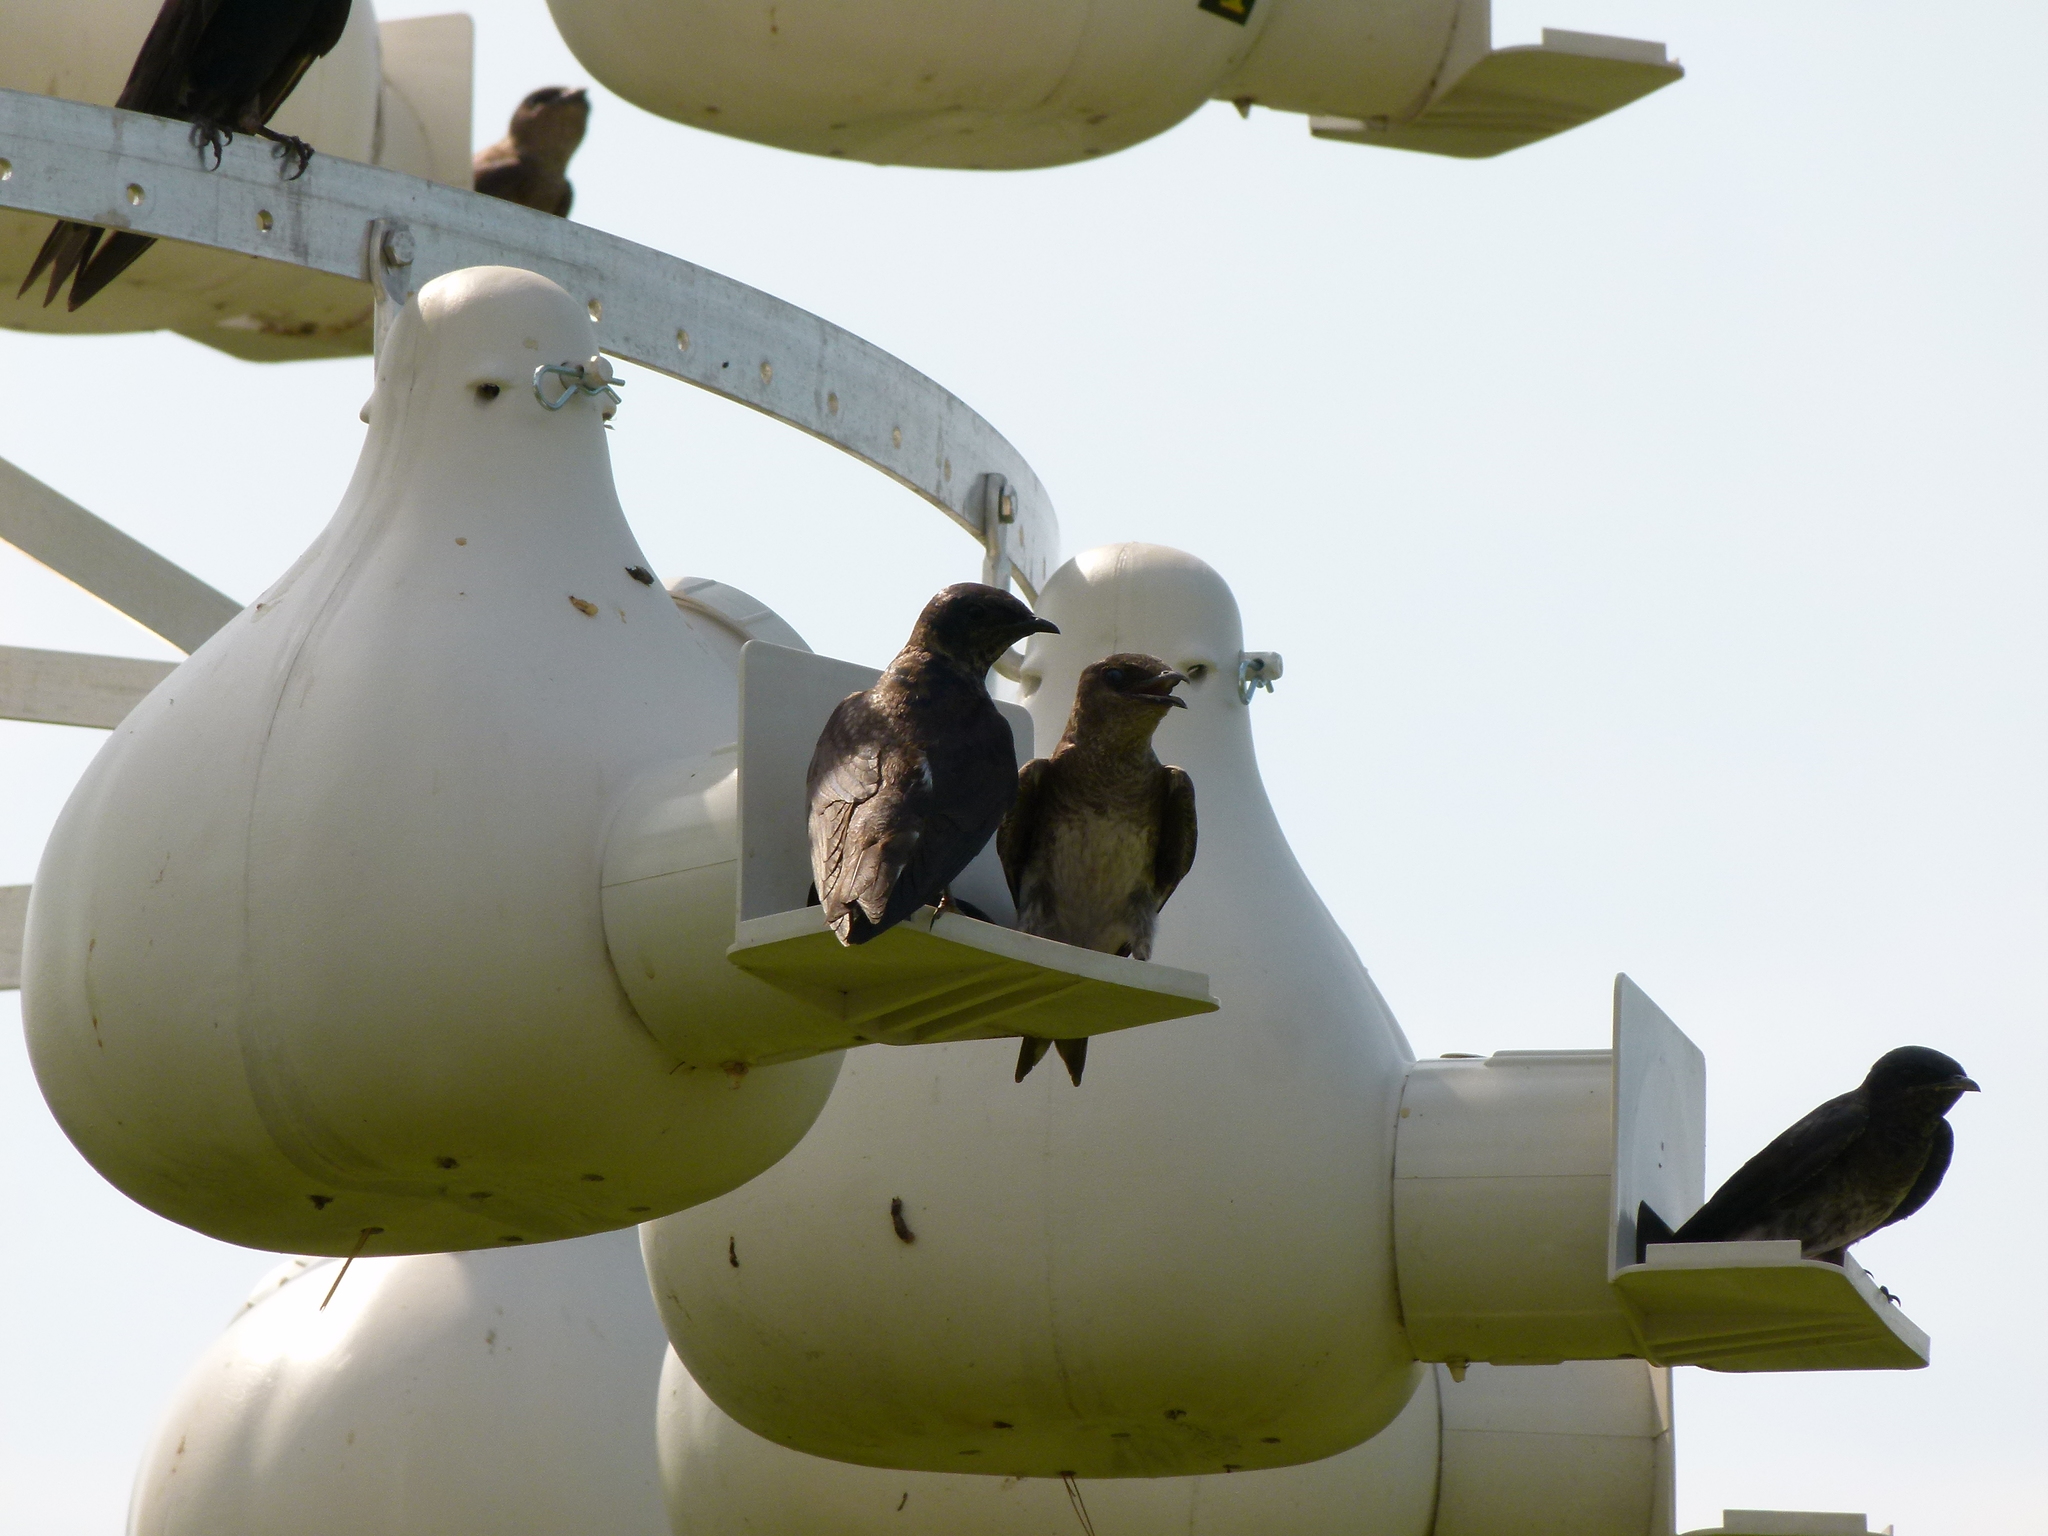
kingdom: Animalia
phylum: Chordata
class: Aves
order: Passeriformes
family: Hirundinidae
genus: Progne
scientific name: Progne subis
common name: Purple martin
